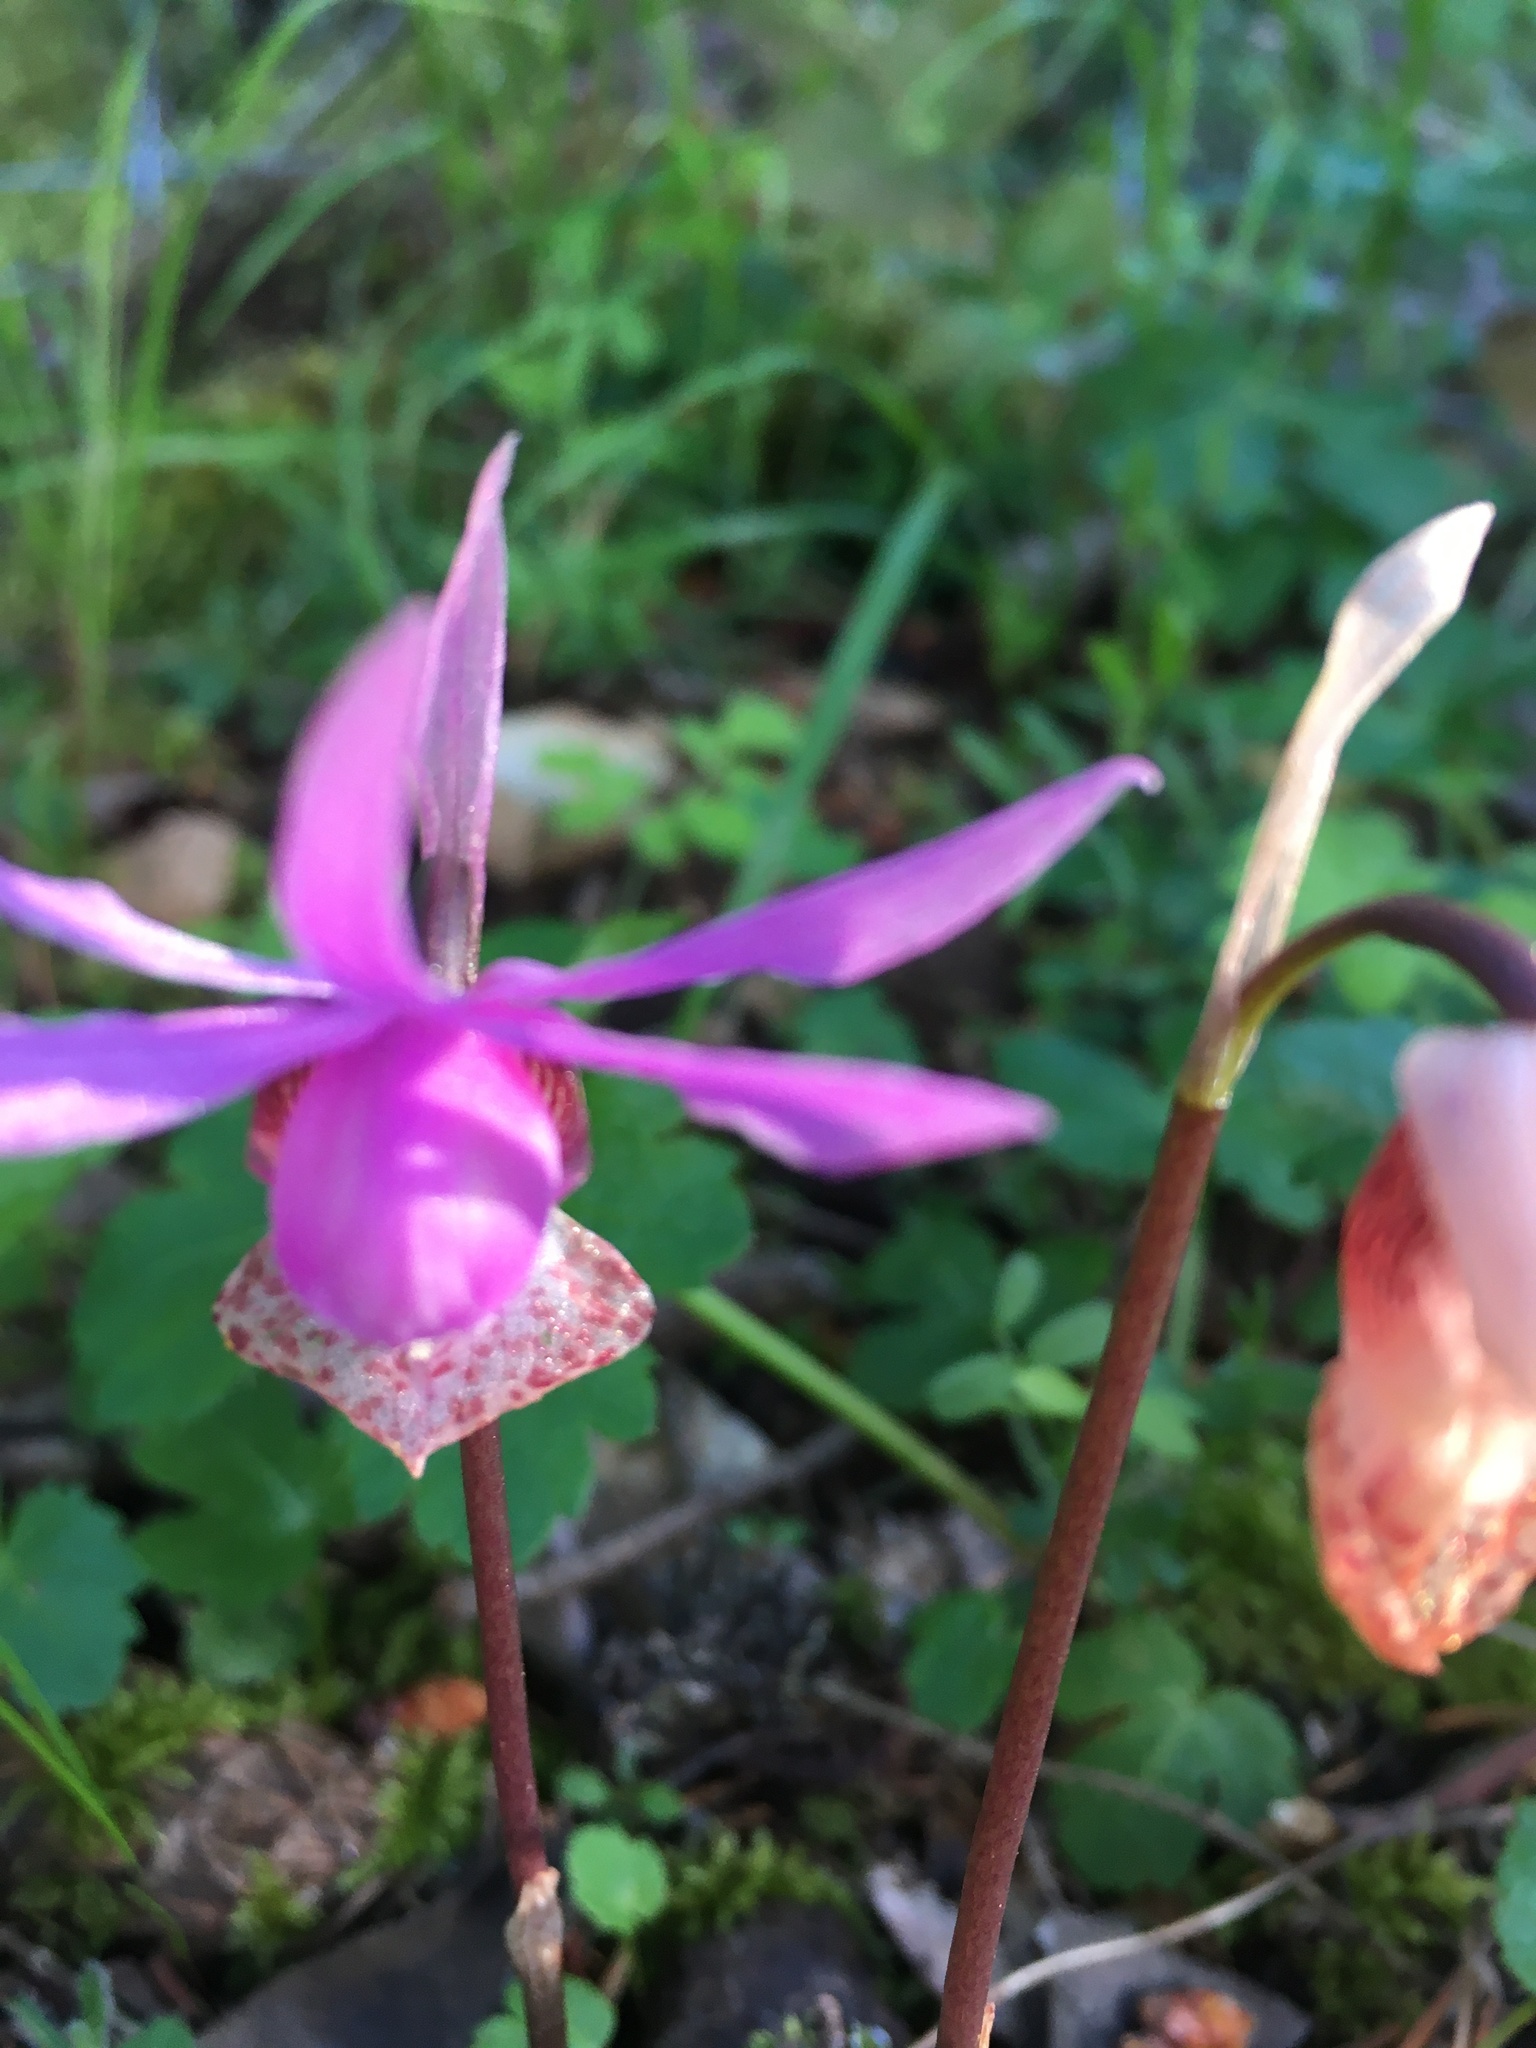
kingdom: Plantae
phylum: Tracheophyta
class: Liliopsida
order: Asparagales
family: Orchidaceae
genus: Calypso
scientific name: Calypso bulbosa
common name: Calypso
